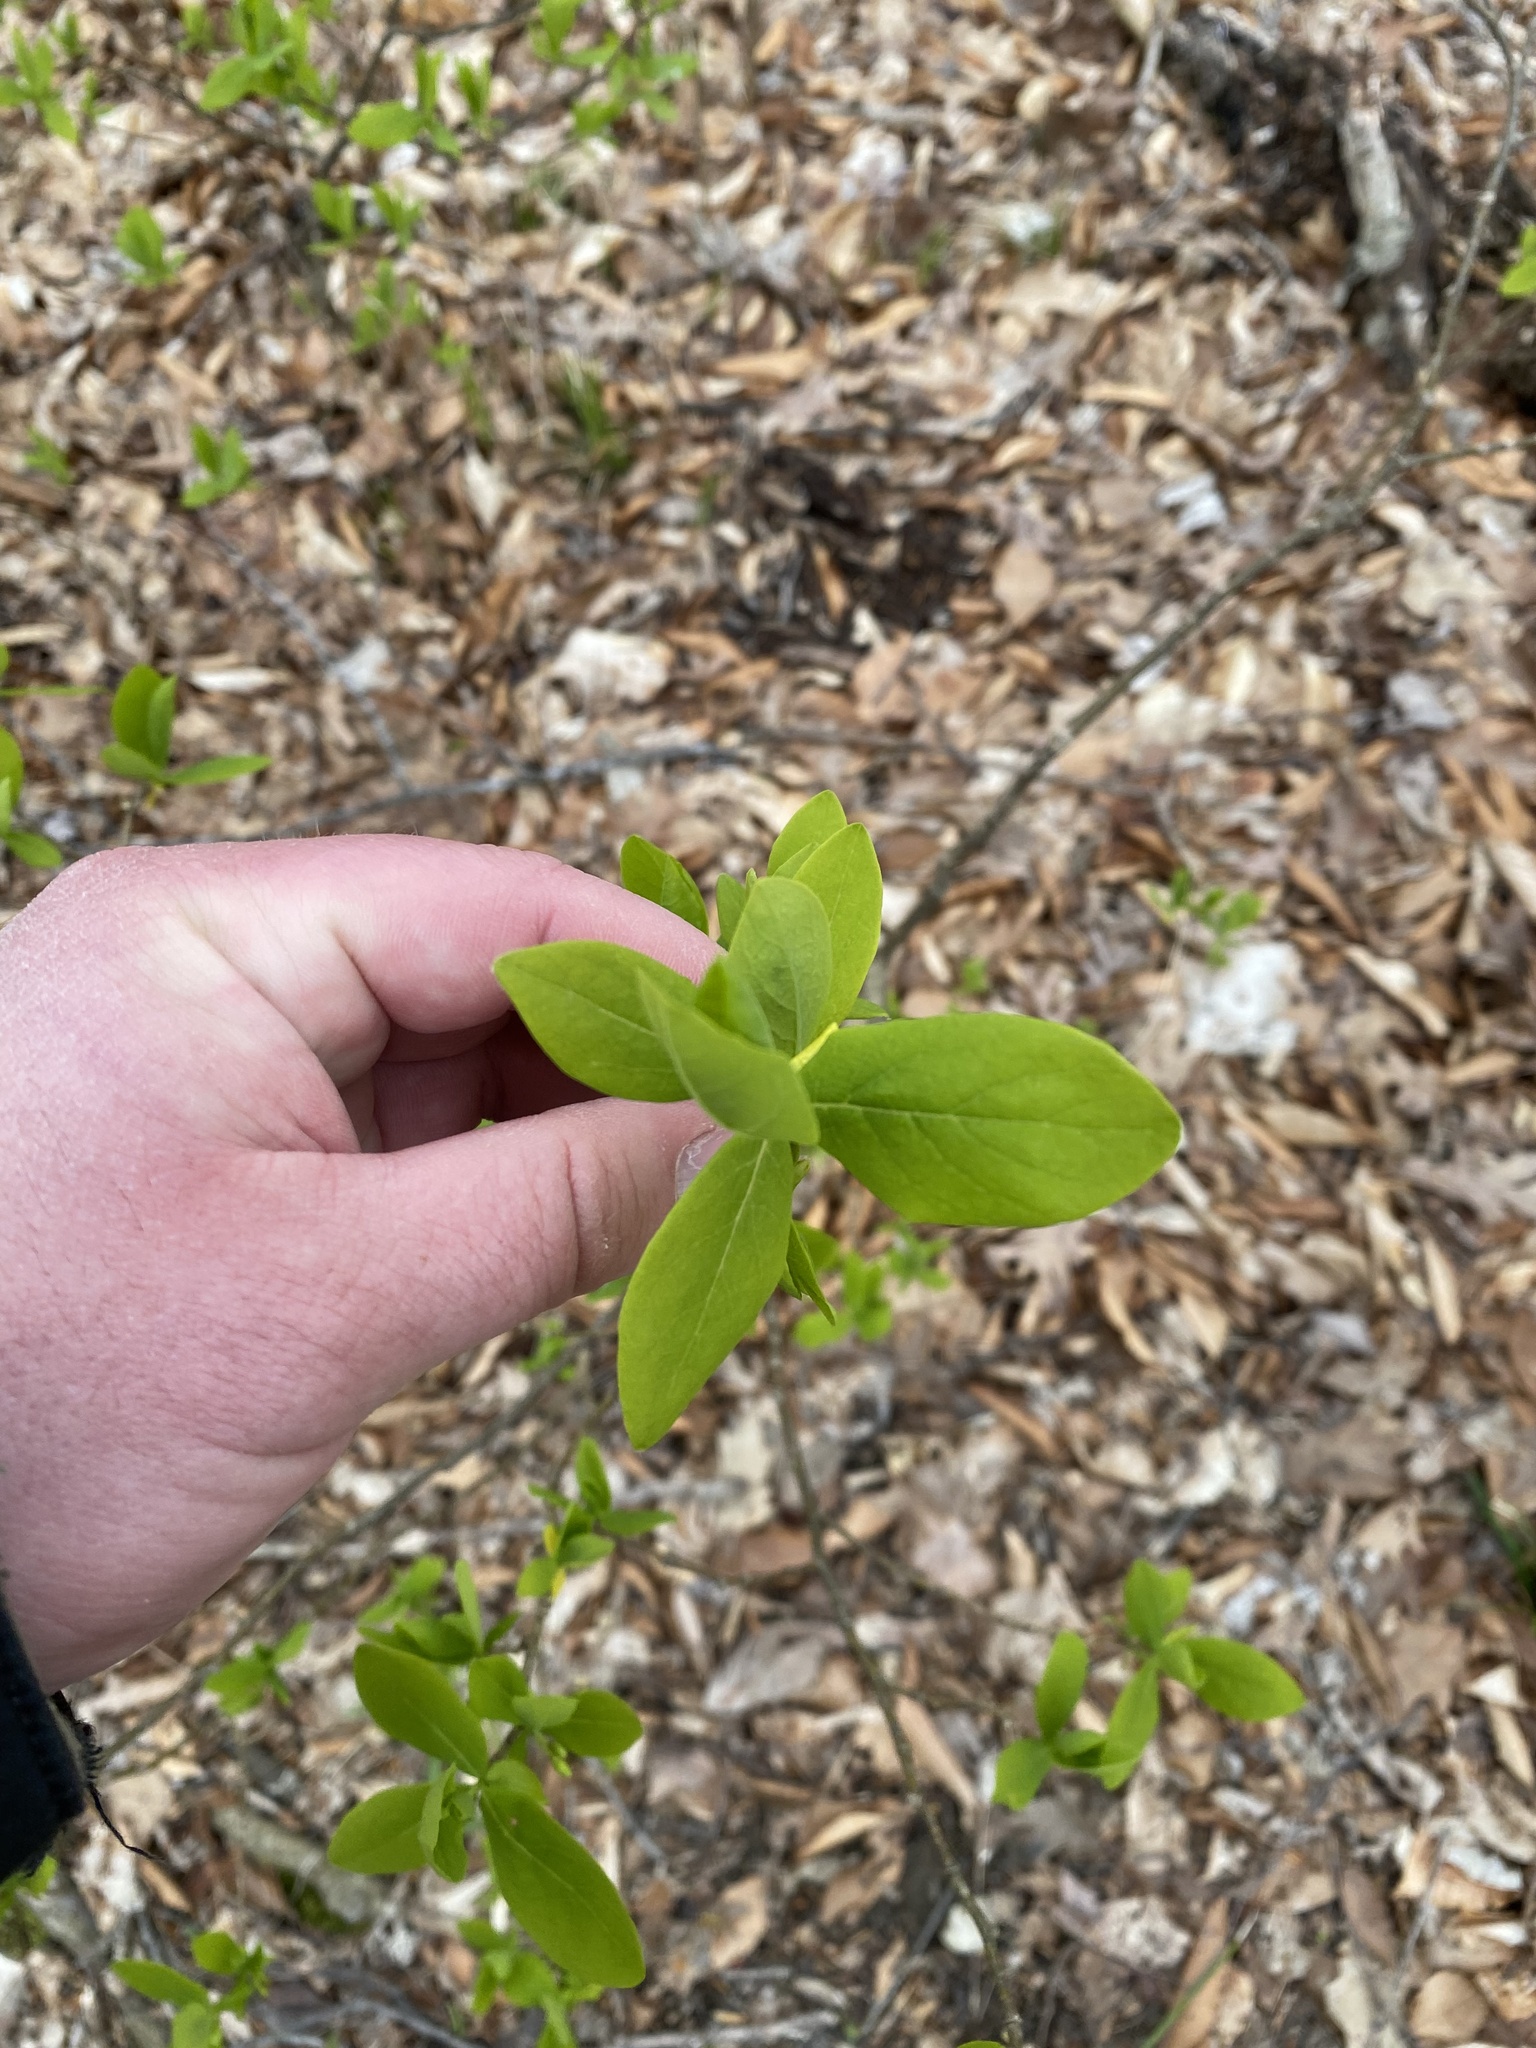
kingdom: Plantae
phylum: Tracheophyta
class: Magnoliopsida
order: Malvales
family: Thymelaeaceae
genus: Dirca
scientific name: Dirca palustris
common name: Leatherwood
